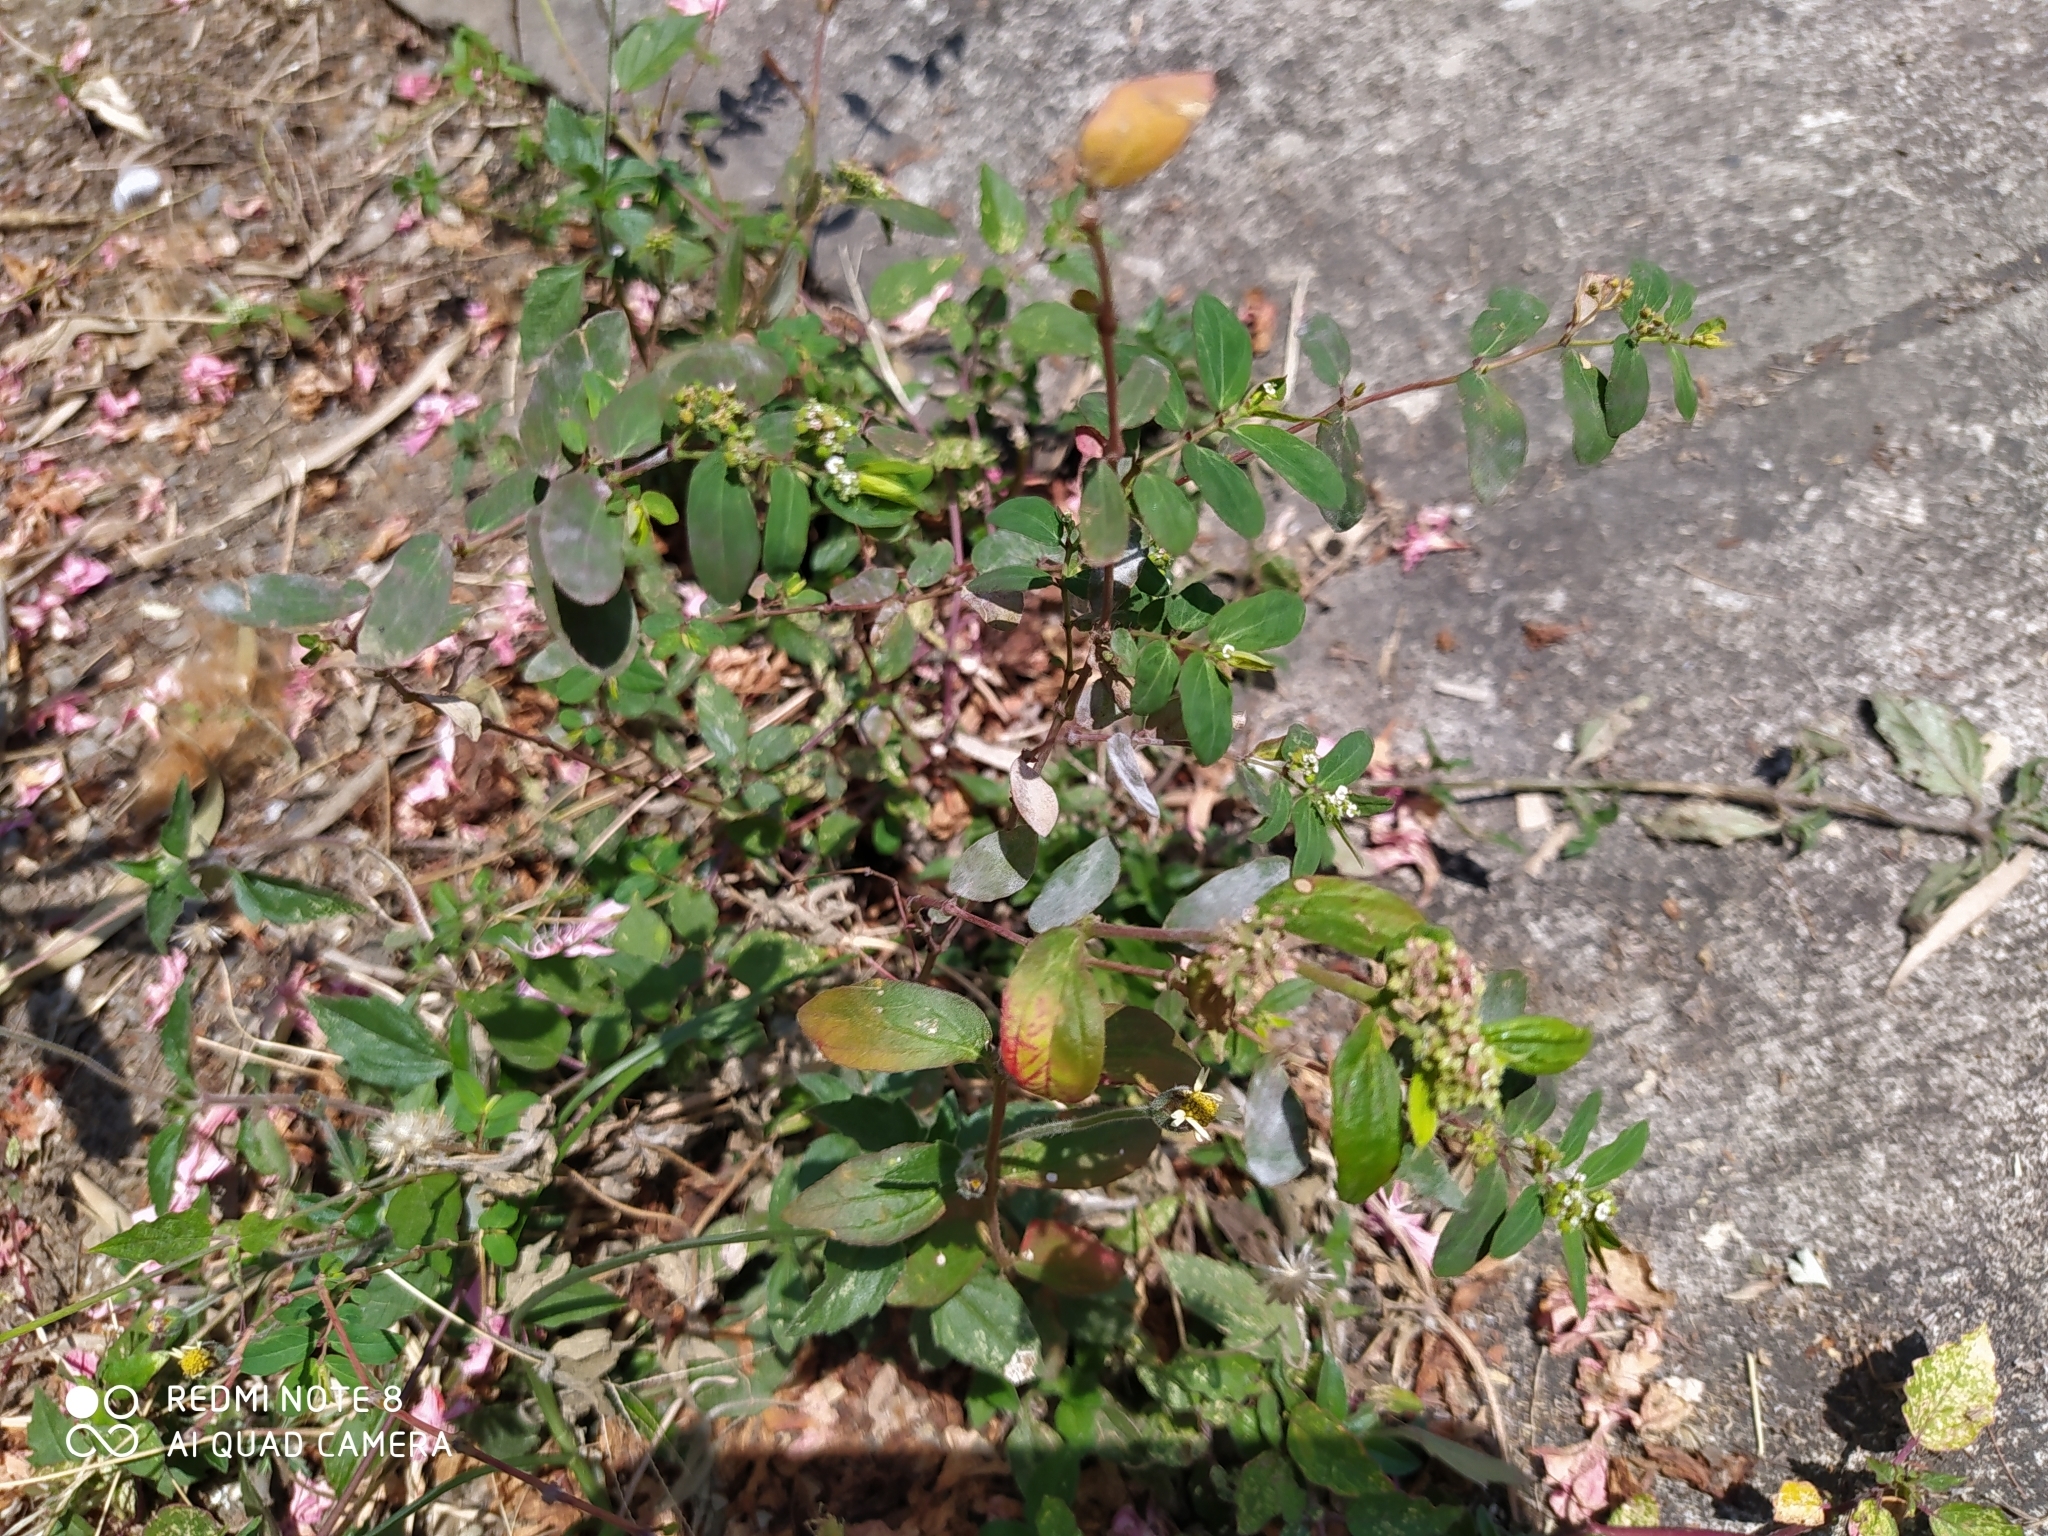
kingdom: Plantae
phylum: Tracheophyta
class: Magnoliopsida
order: Malpighiales
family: Euphorbiaceae
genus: Euphorbia
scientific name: Euphorbia hypericifolia
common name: Graceful sandmat
